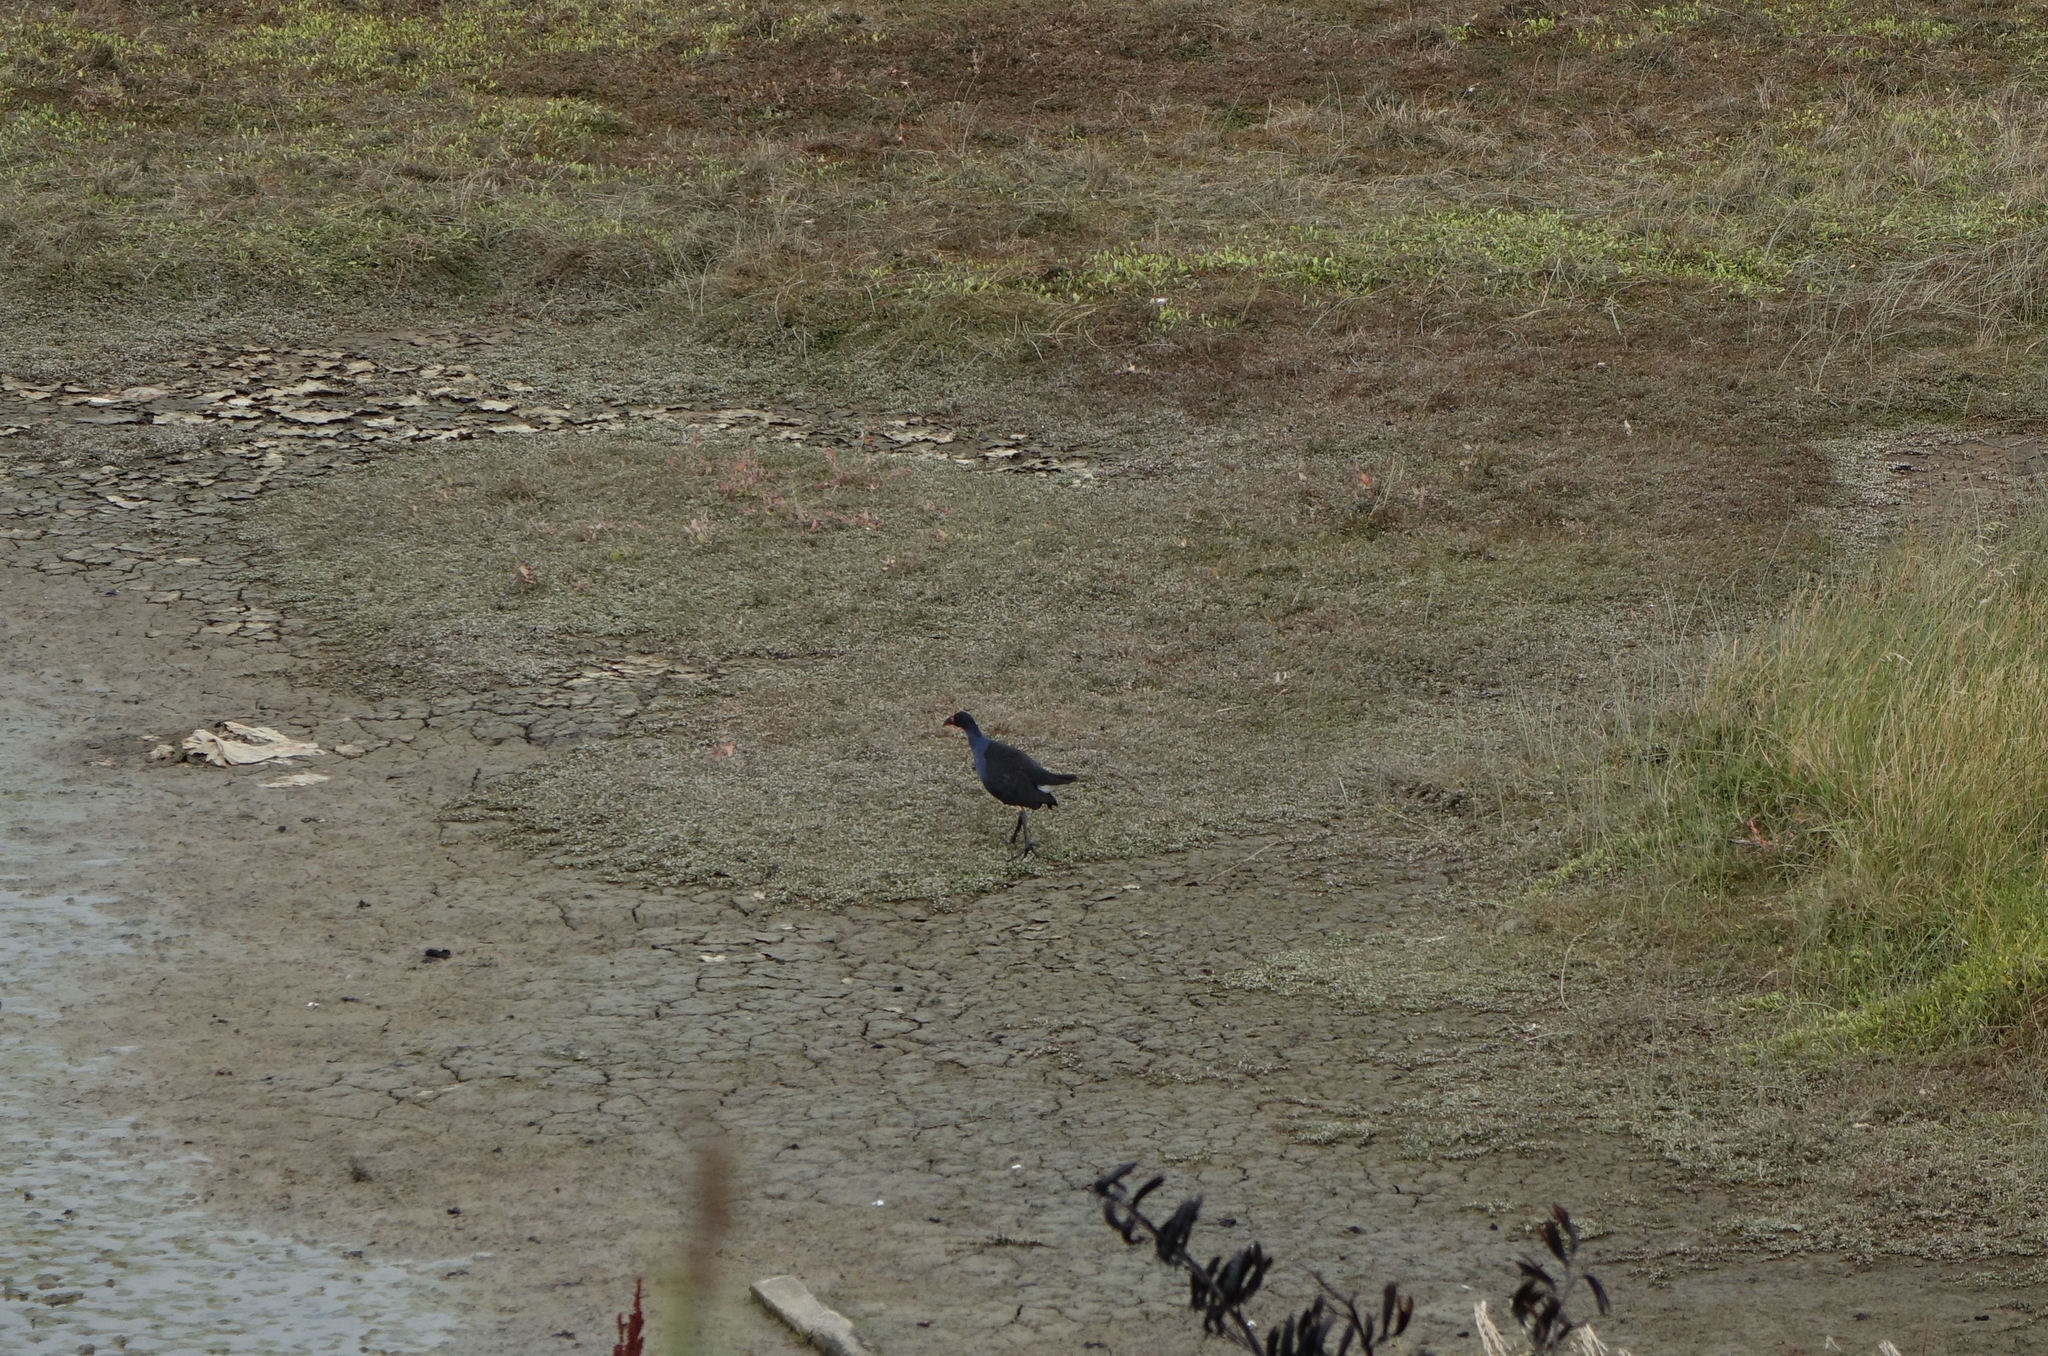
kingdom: Animalia
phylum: Chordata
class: Aves
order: Gruiformes
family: Rallidae
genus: Porphyrio
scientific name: Porphyrio melanotus
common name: Australasian swamphen
